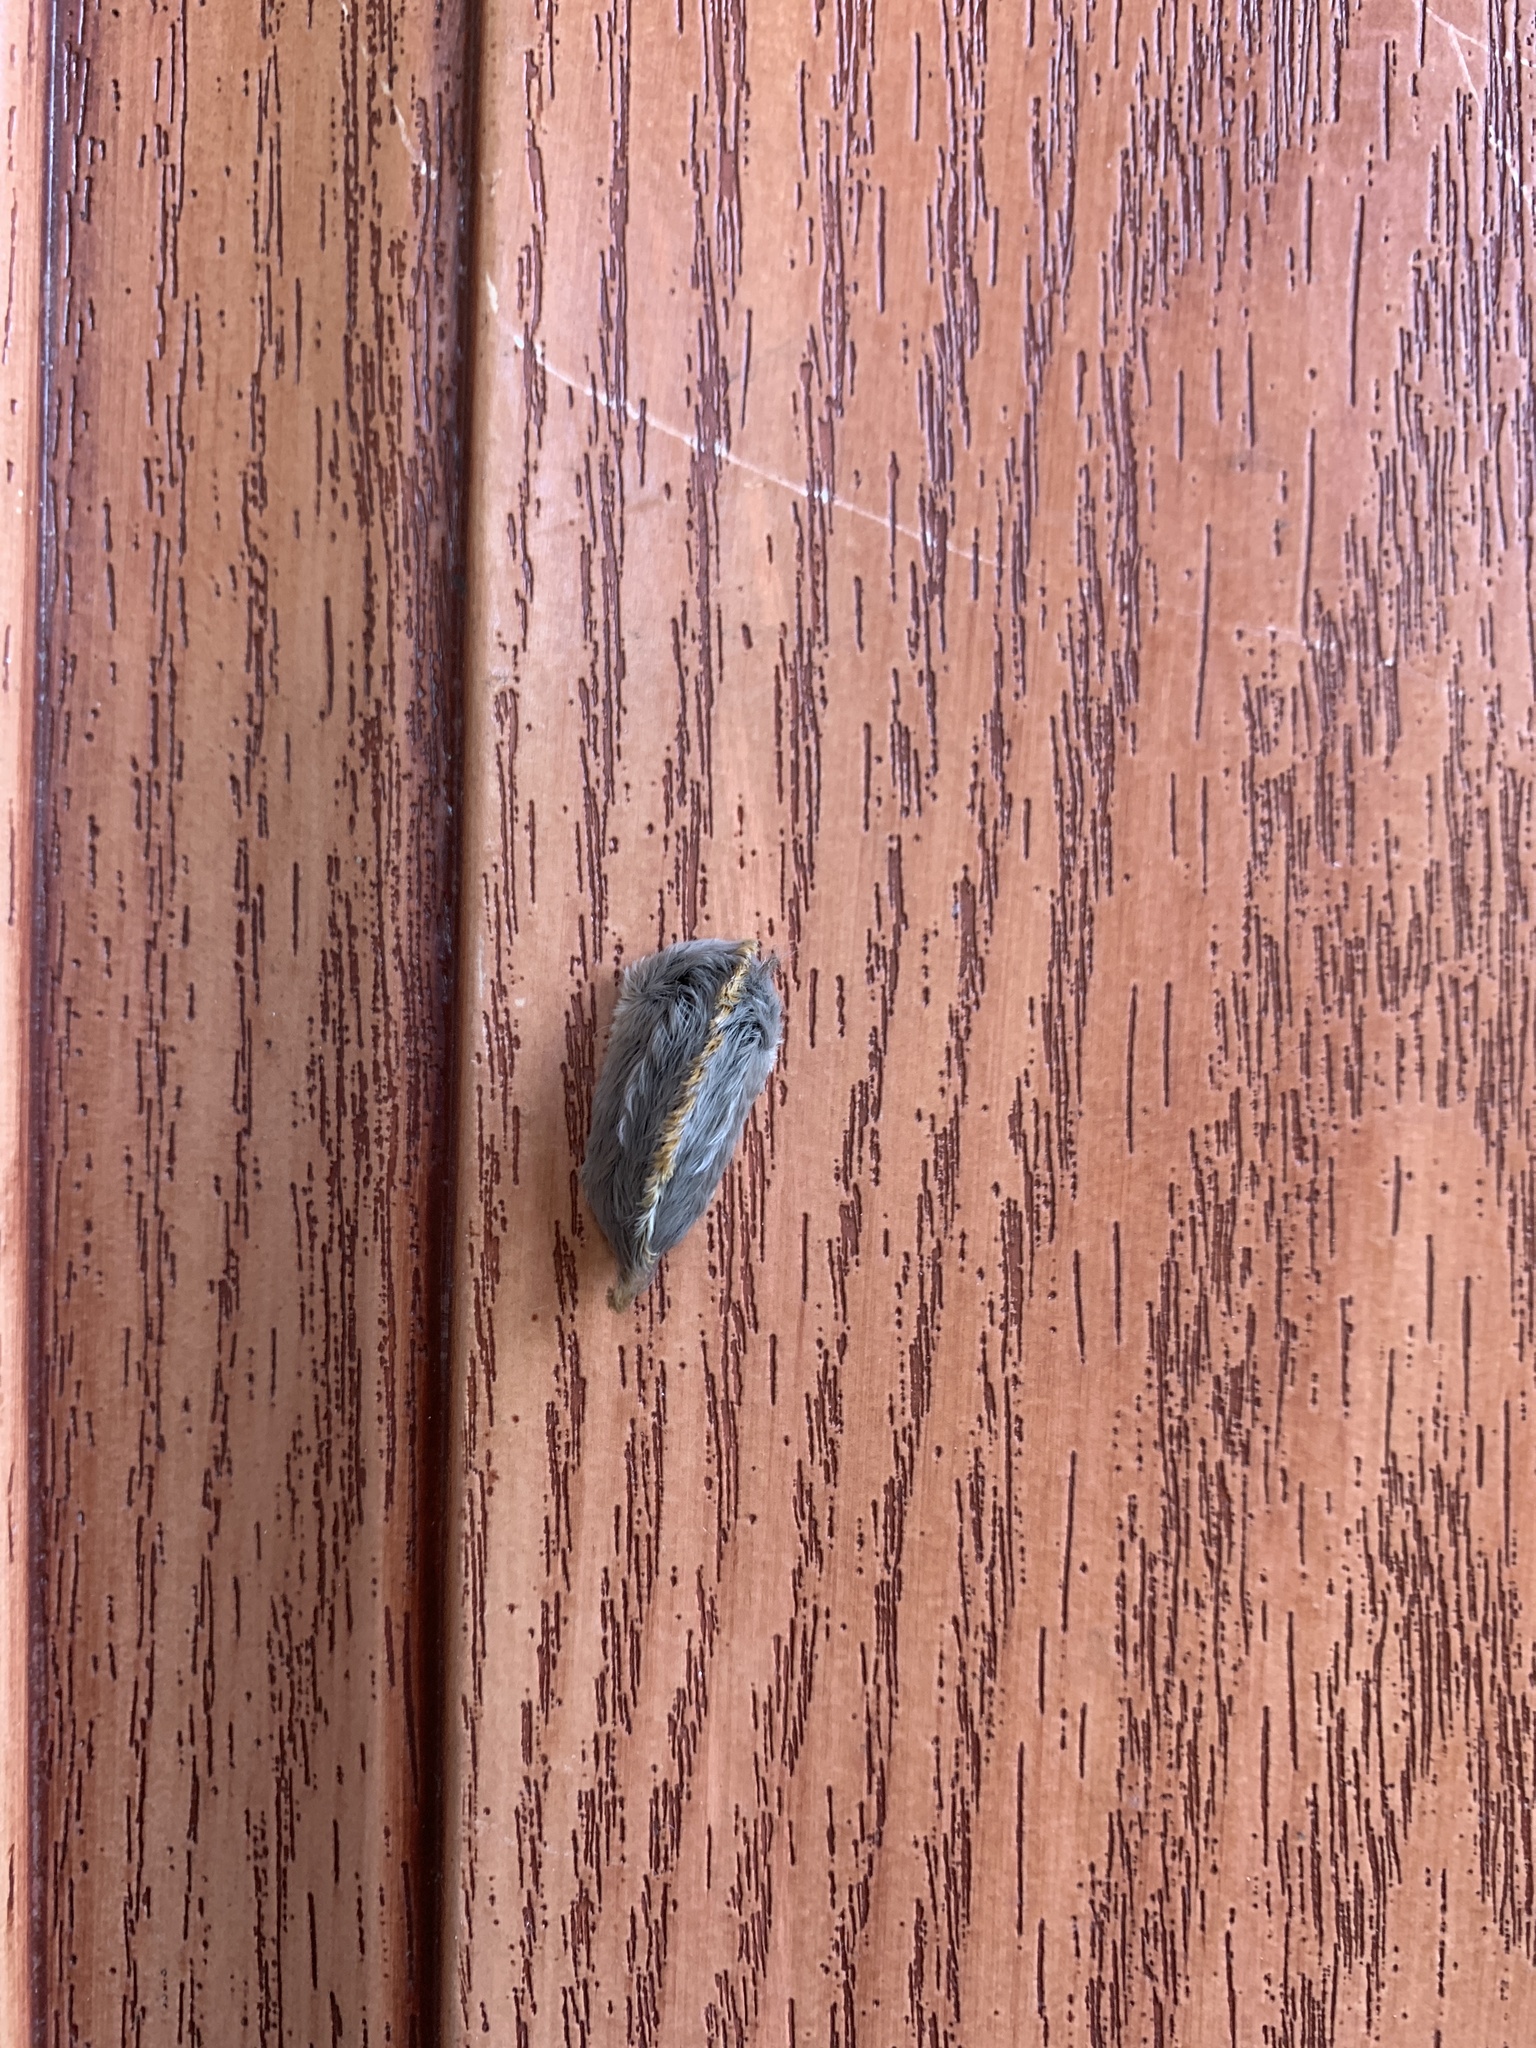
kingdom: Animalia
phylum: Arthropoda
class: Insecta
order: Lepidoptera
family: Megalopygidae
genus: Megalopyge
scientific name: Megalopyge opercularis
